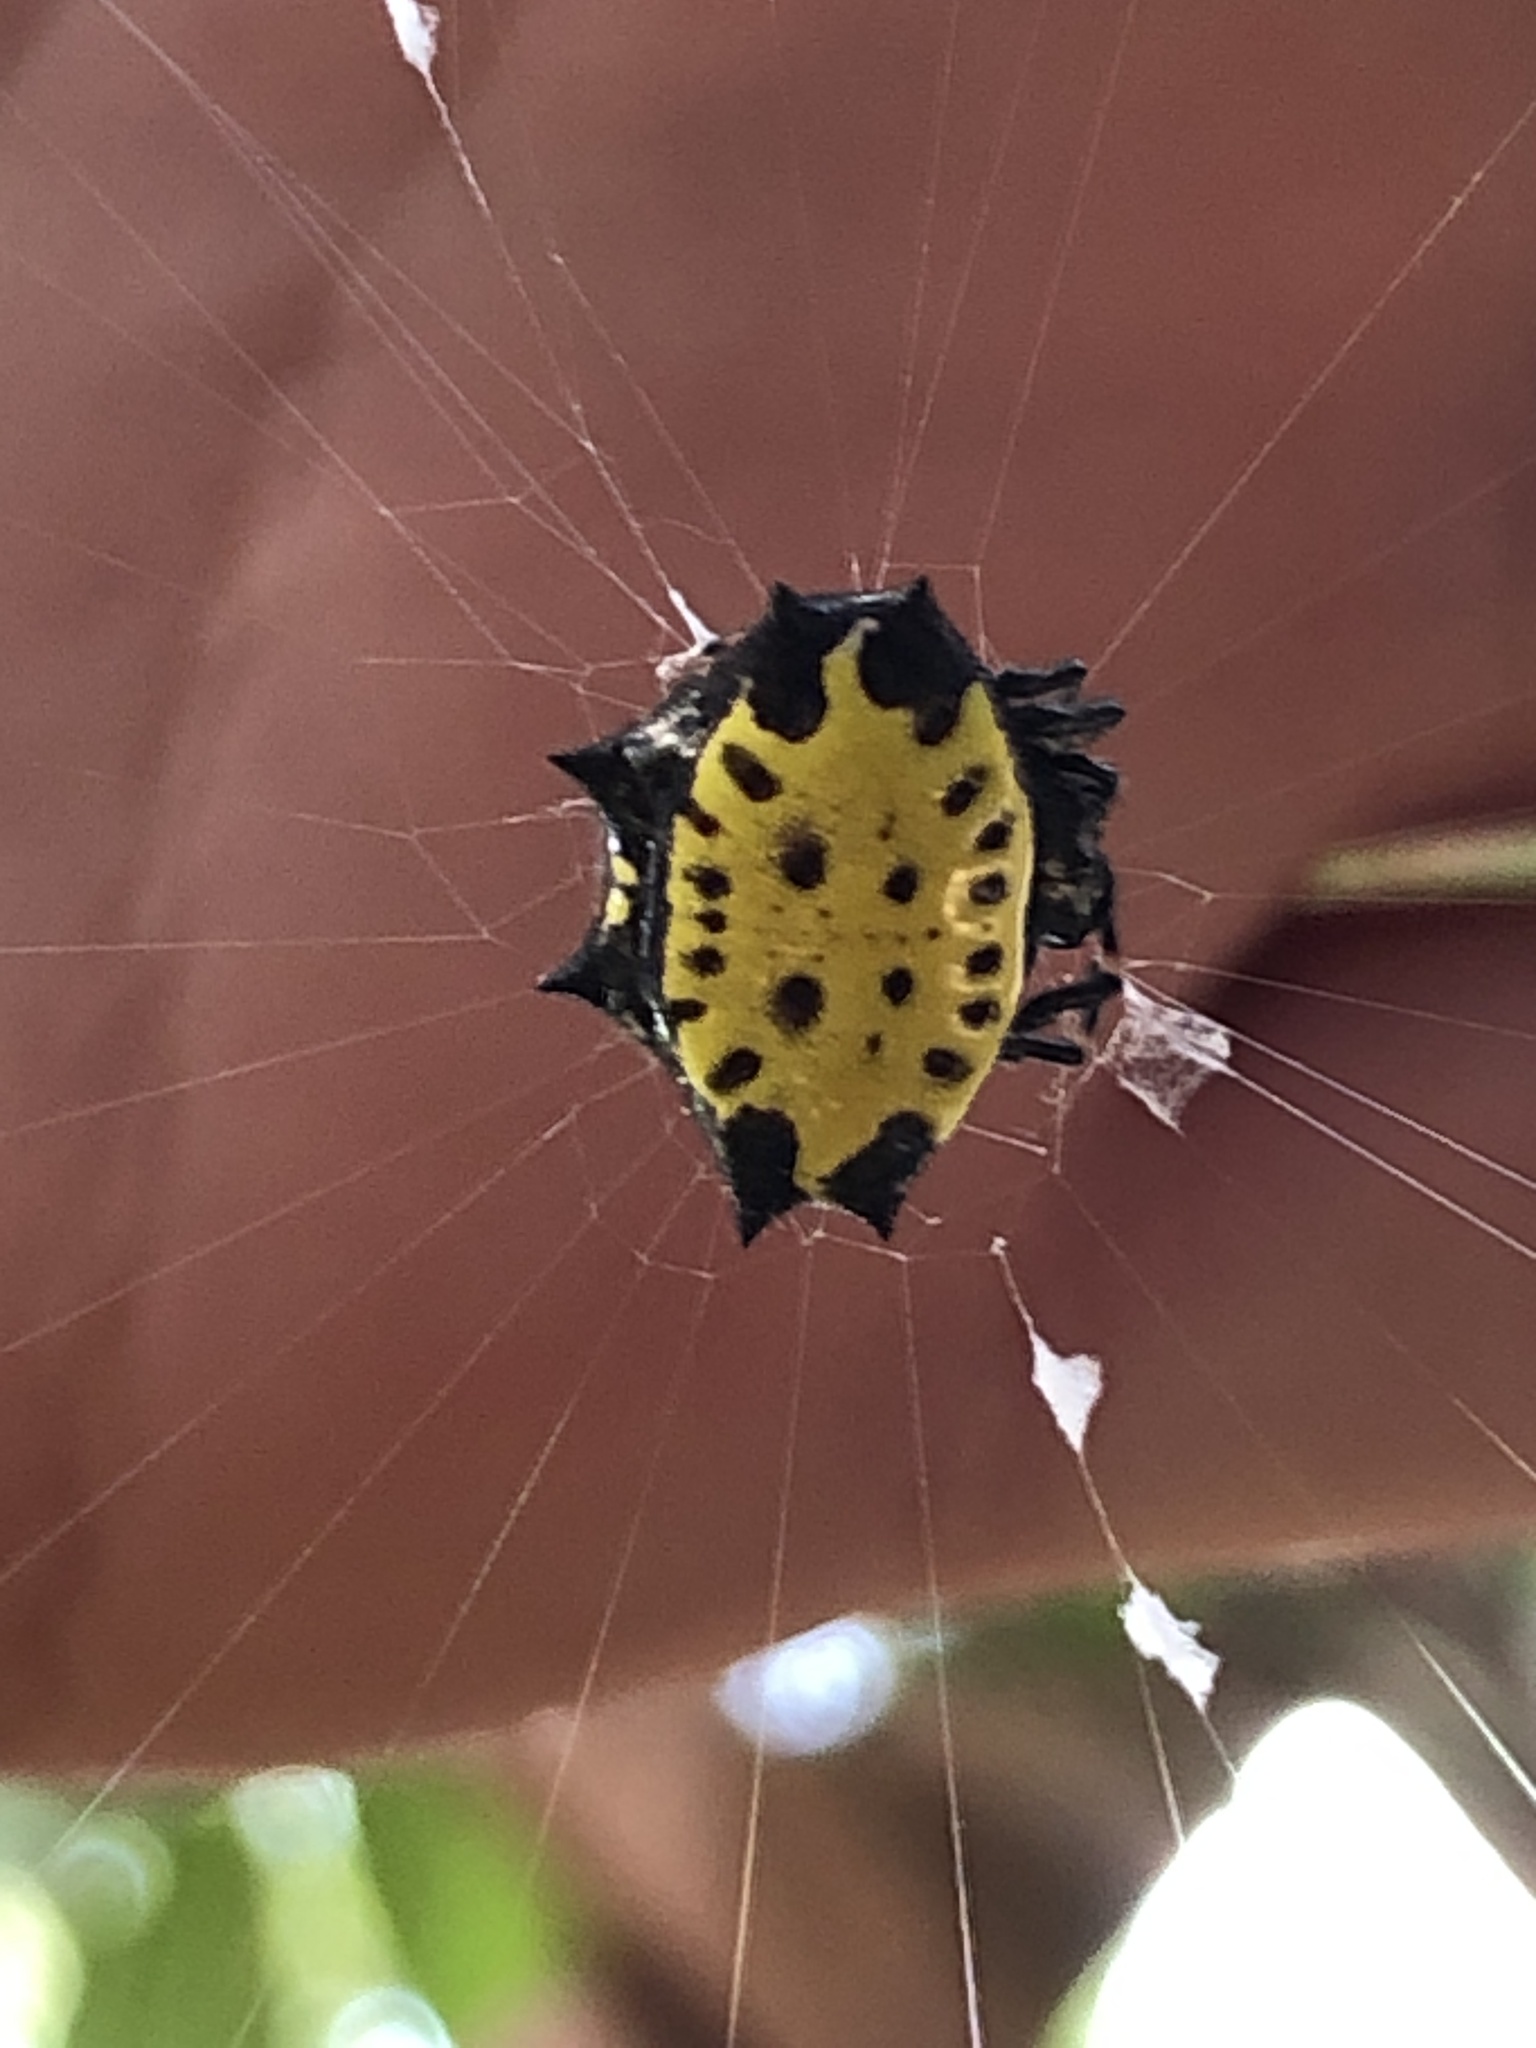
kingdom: Animalia
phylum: Arthropoda
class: Arachnida
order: Araneae
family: Araneidae
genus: Gasteracantha
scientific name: Gasteracantha cancriformis
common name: Orb weavers
